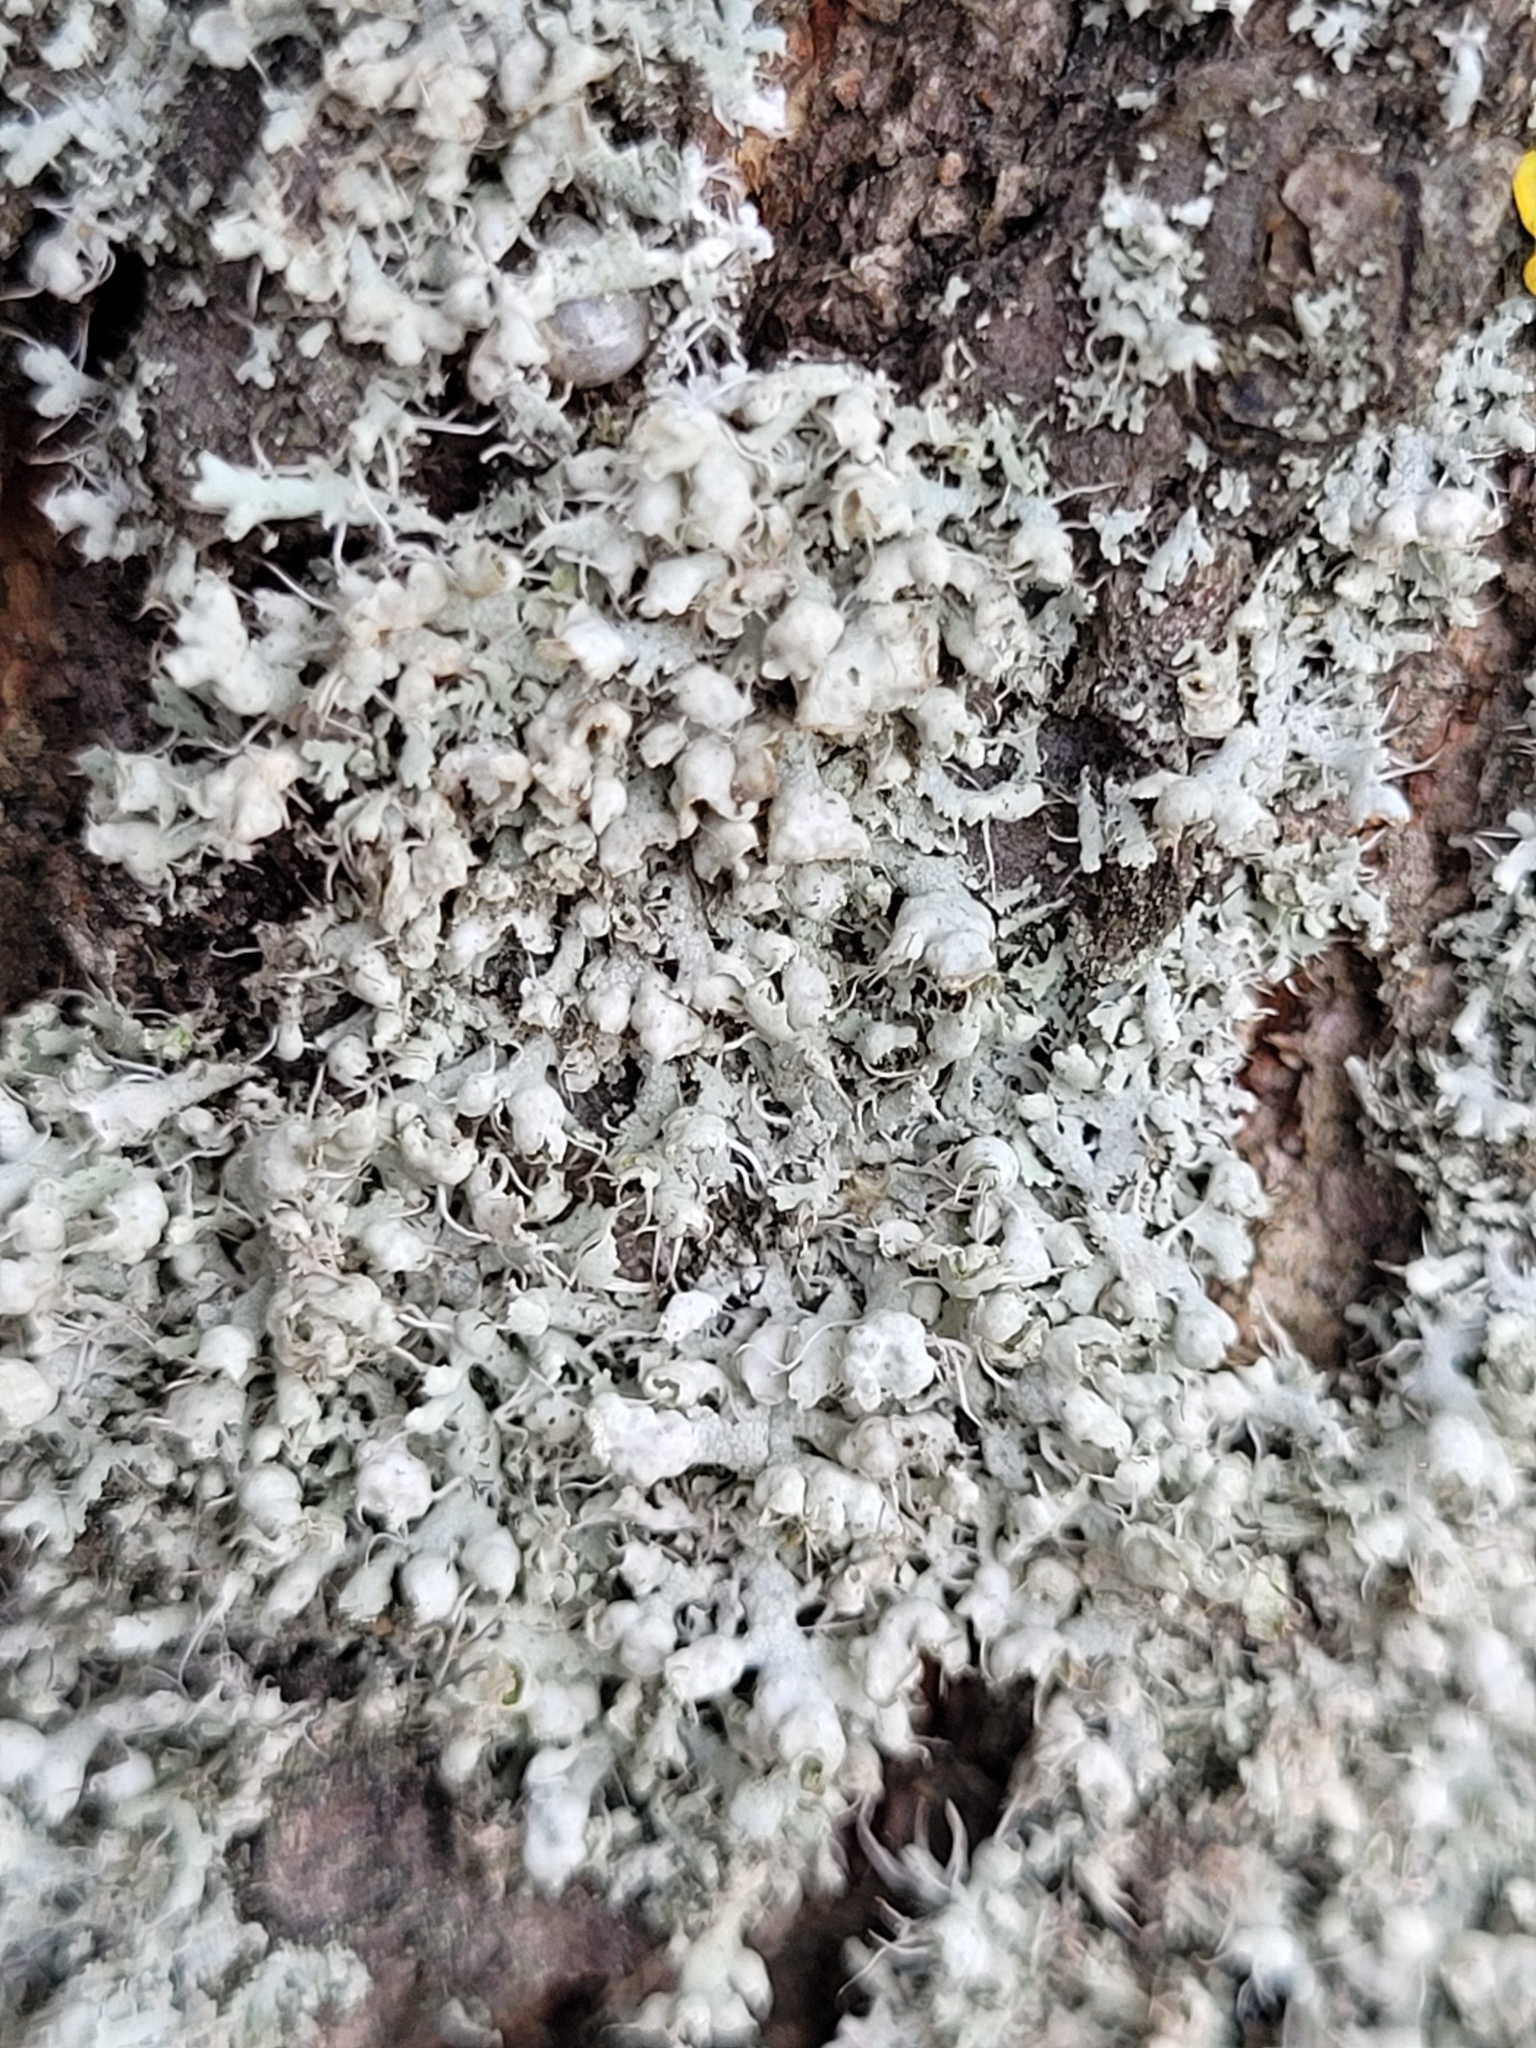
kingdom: Fungi
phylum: Ascomycota
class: Lecanoromycetes
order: Caliciales
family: Physciaceae
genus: Physcia
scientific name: Physcia adscendens
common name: Hooded rosette lichen
